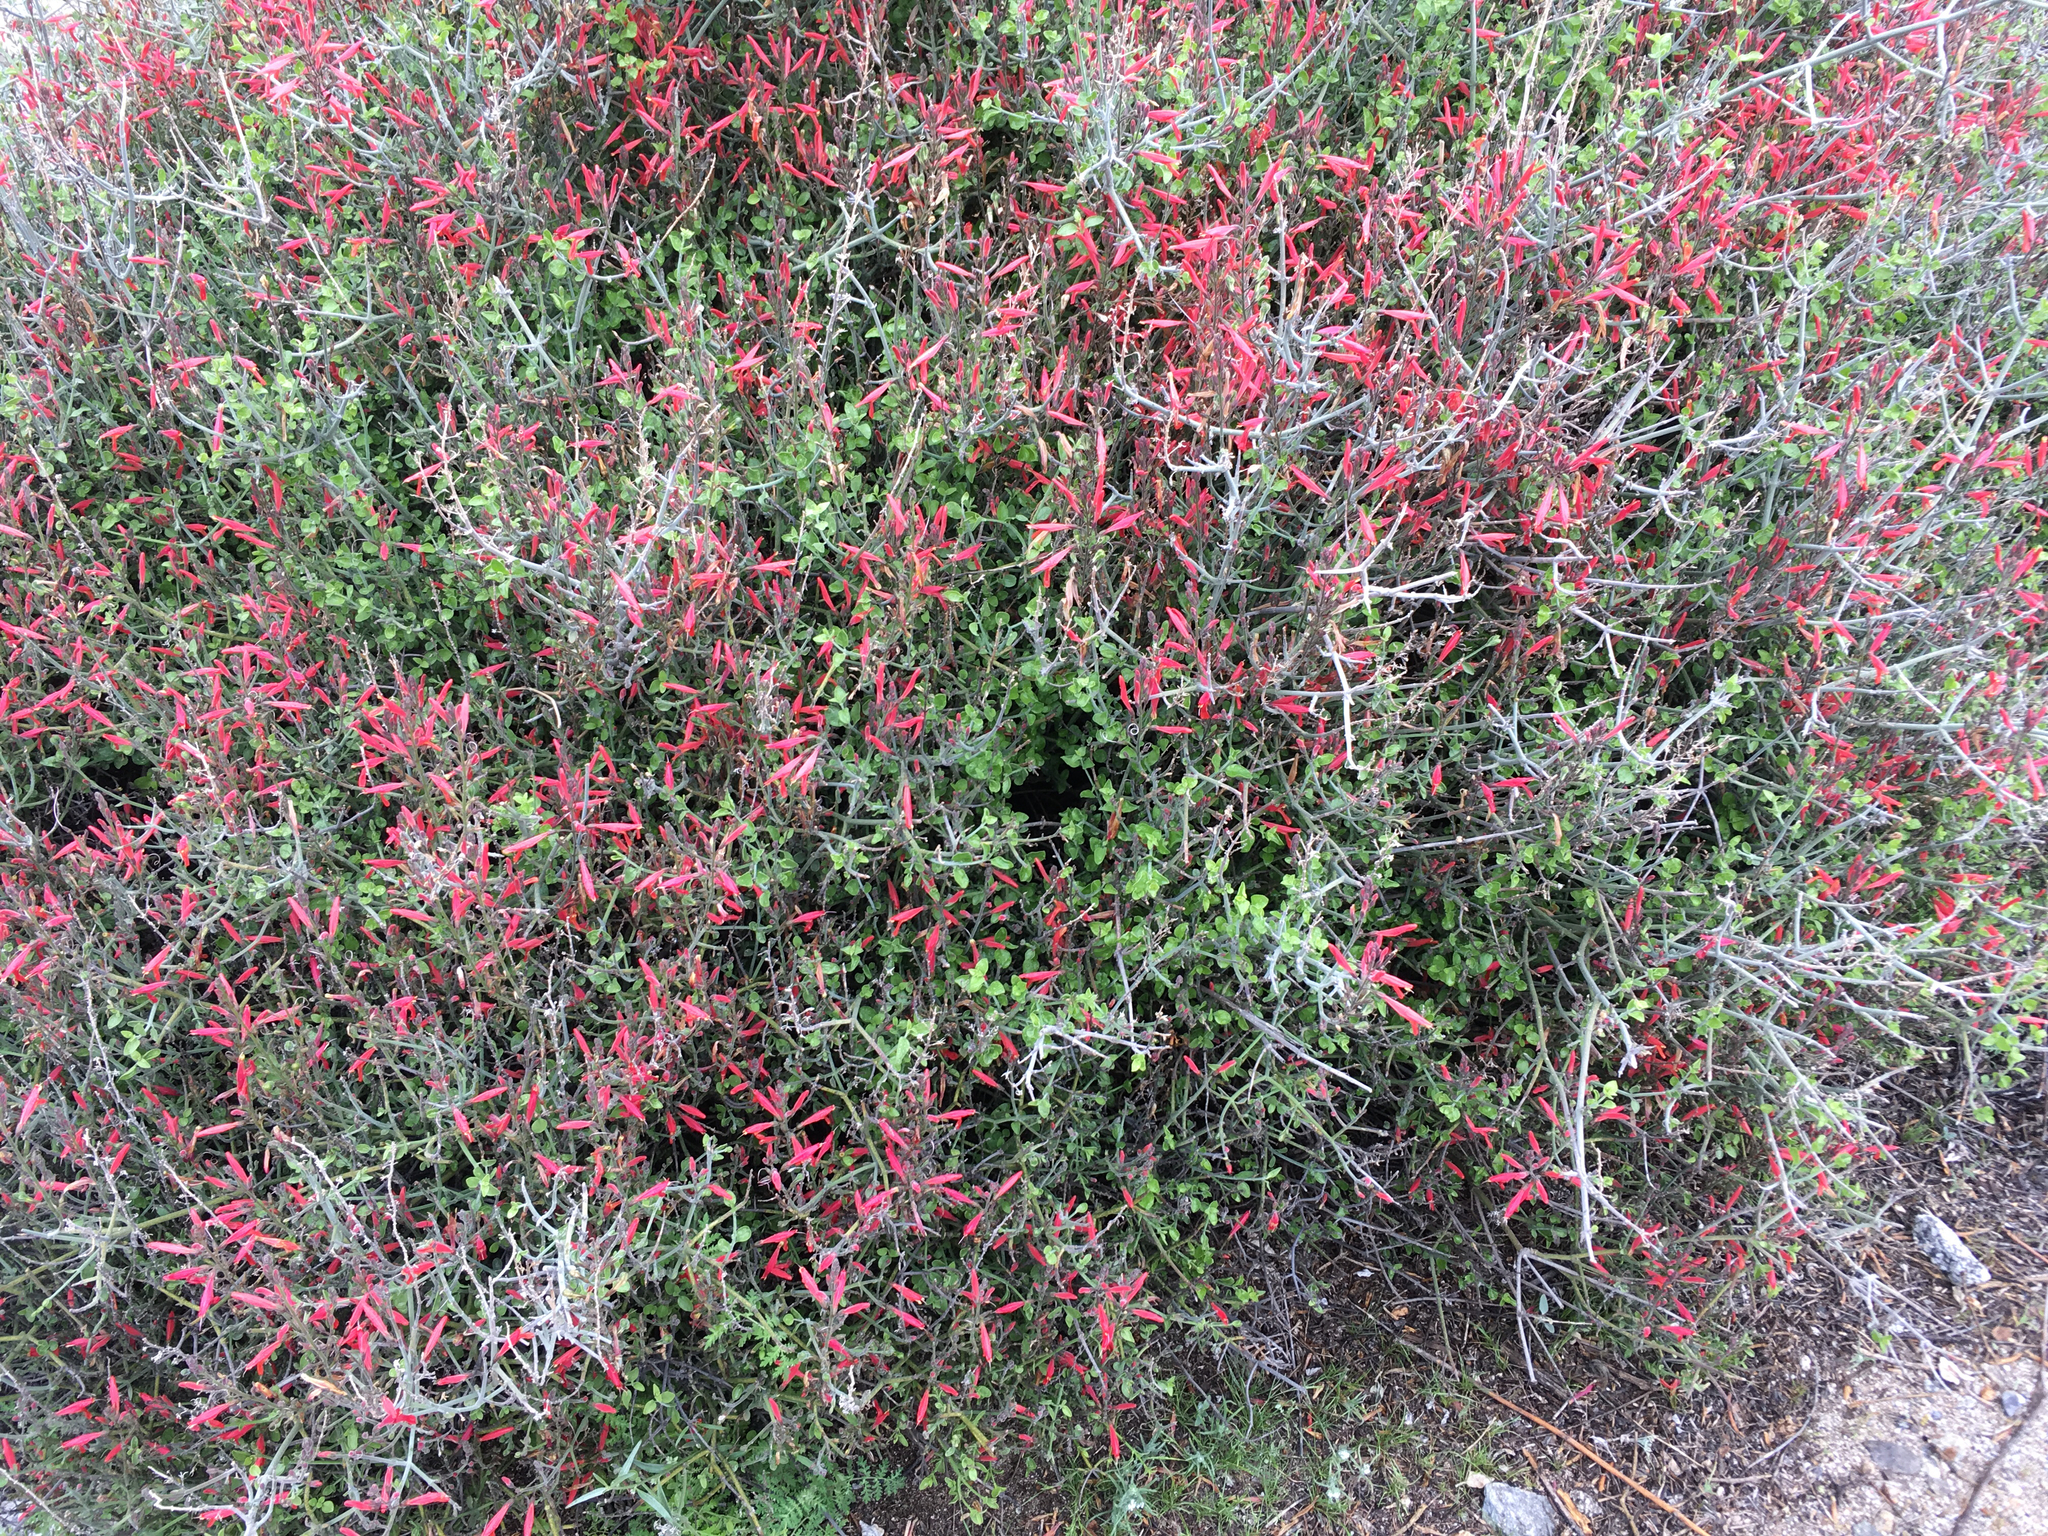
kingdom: Plantae
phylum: Tracheophyta
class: Magnoliopsida
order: Lamiales
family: Acanthaceae
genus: Justicia
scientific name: Justicia californica
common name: Chuparosa-honeysuckle
